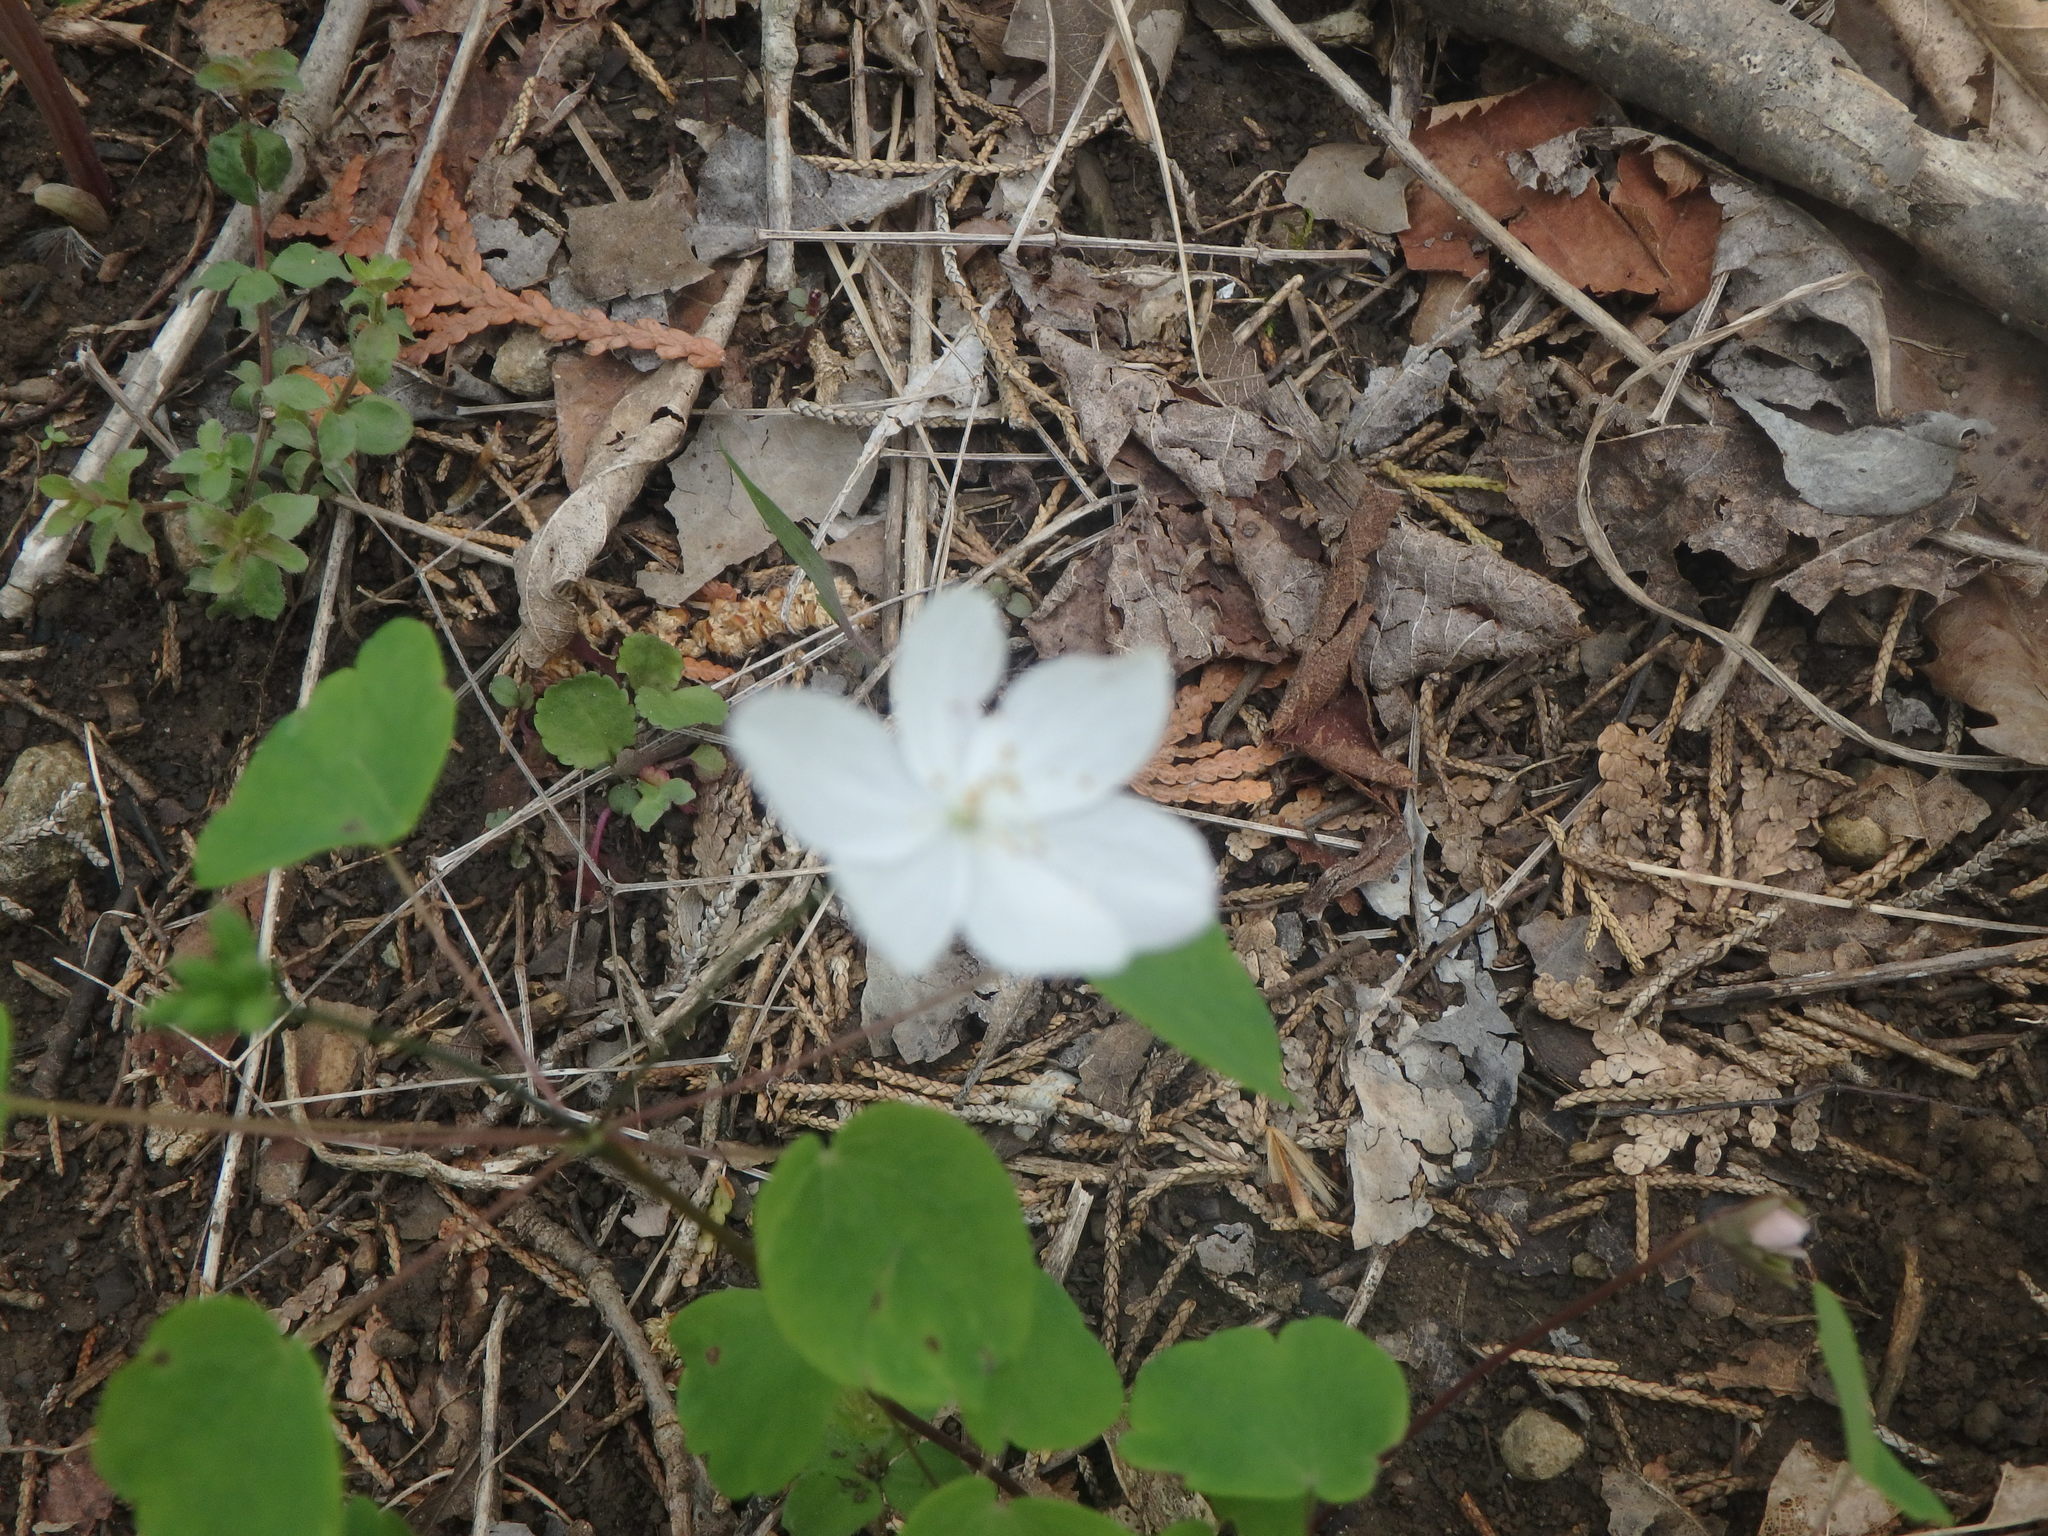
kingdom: Plantae
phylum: Tracheophyta
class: Magnoliopsida
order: Ranunculales
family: Ranunculaceae
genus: Thalictrum
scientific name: Thalictrum thalictroides
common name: Rue-anemone
